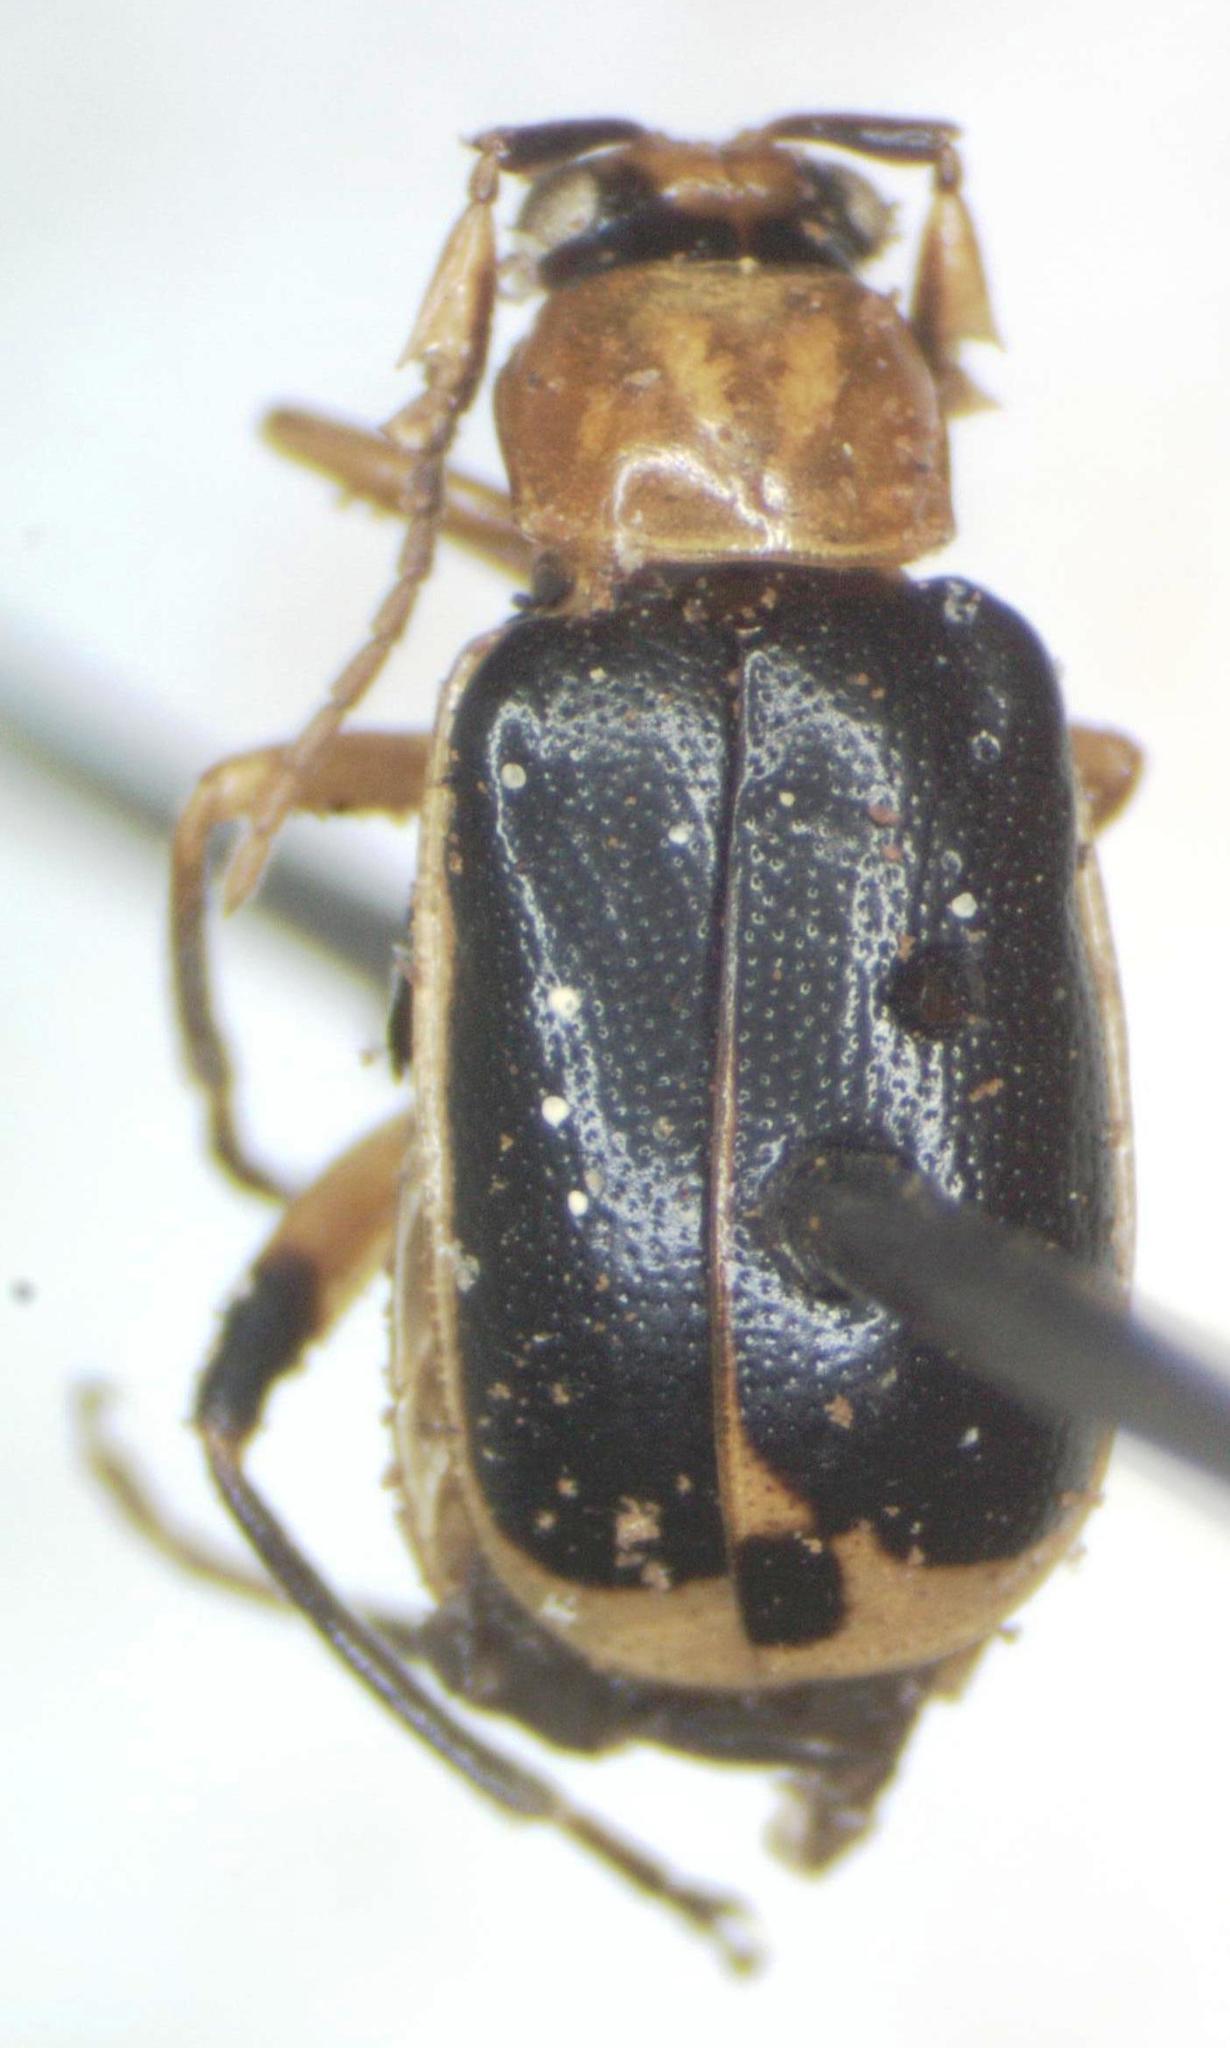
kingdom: Animalia
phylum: Arthropoda
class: Insecta
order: Coleoptera
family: Chrysomelidae
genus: Cerotoma
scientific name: Cerotoma atrofasciata
